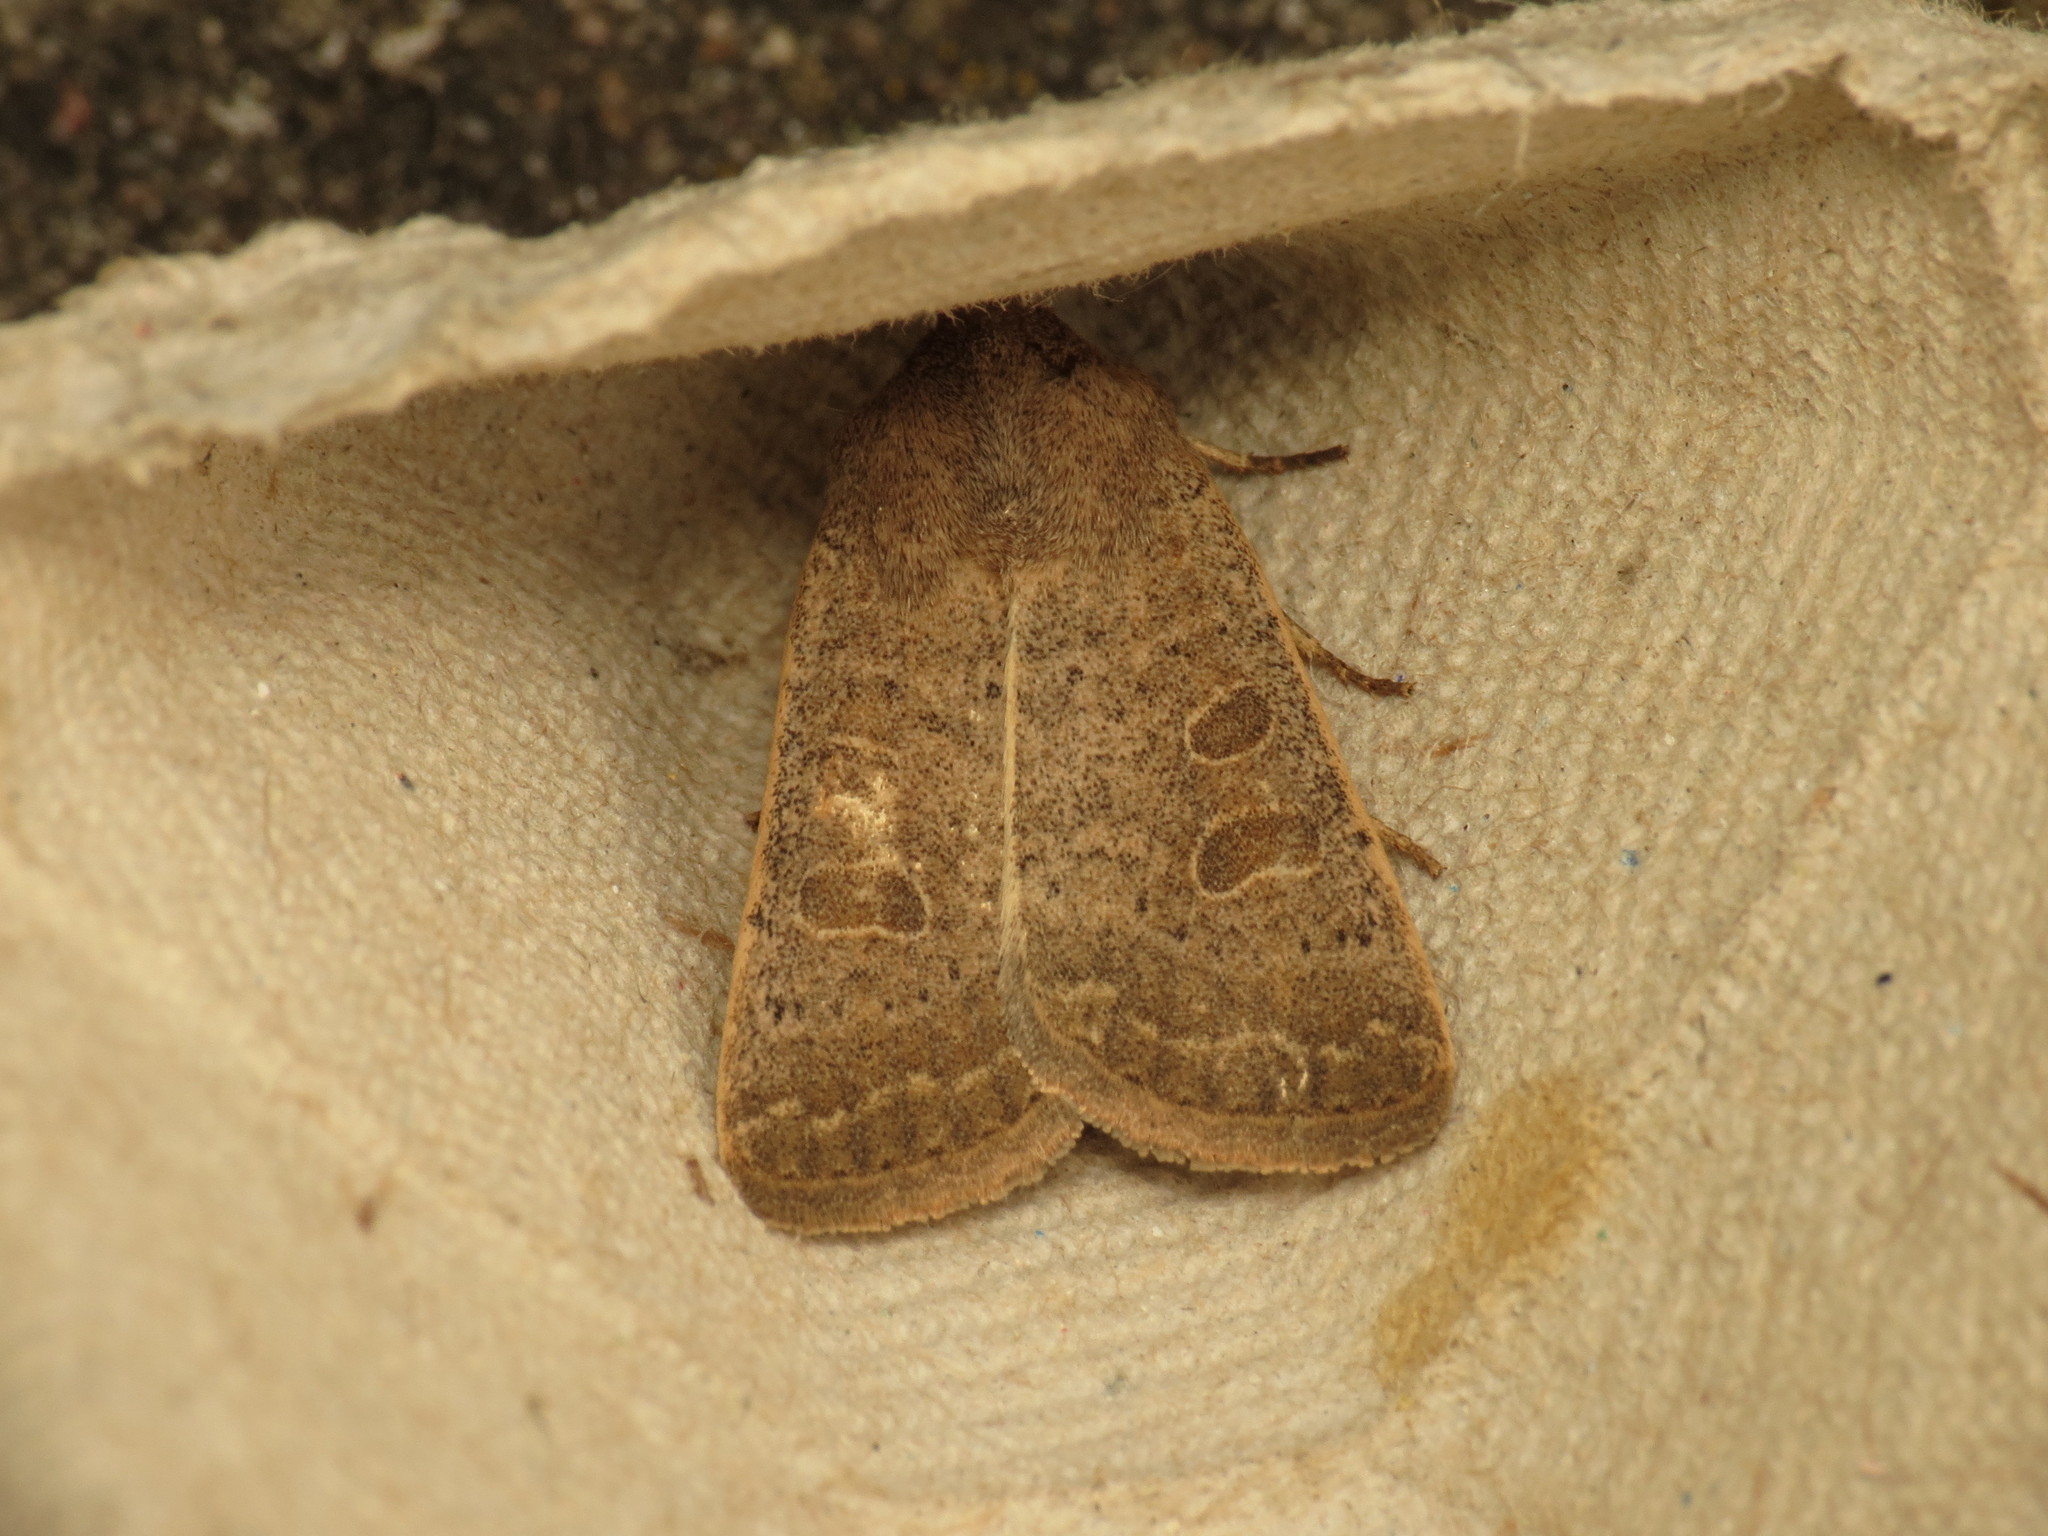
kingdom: Animalia
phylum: Arthropoda
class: Insecta
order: Lepidoptera
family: Noctuidae
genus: Hoplodrina
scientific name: Hoplodrina ambigua
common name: Vine's rustic
